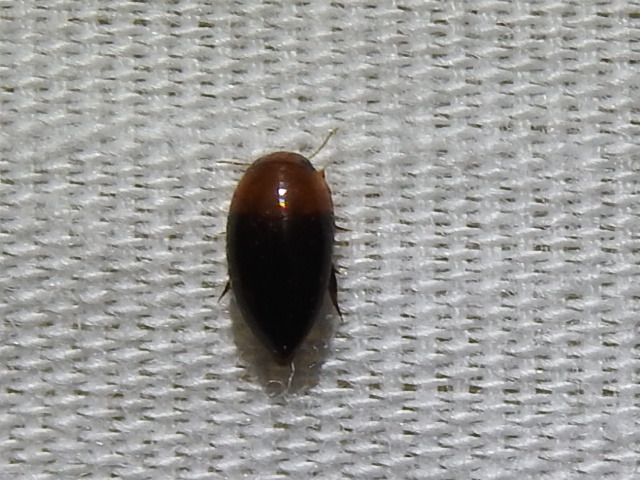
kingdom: Animalia
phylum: Arthropoda
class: Insecta
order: Coleoptera
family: Noteridae
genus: Hydrocanthus
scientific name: Hydrocanthus
